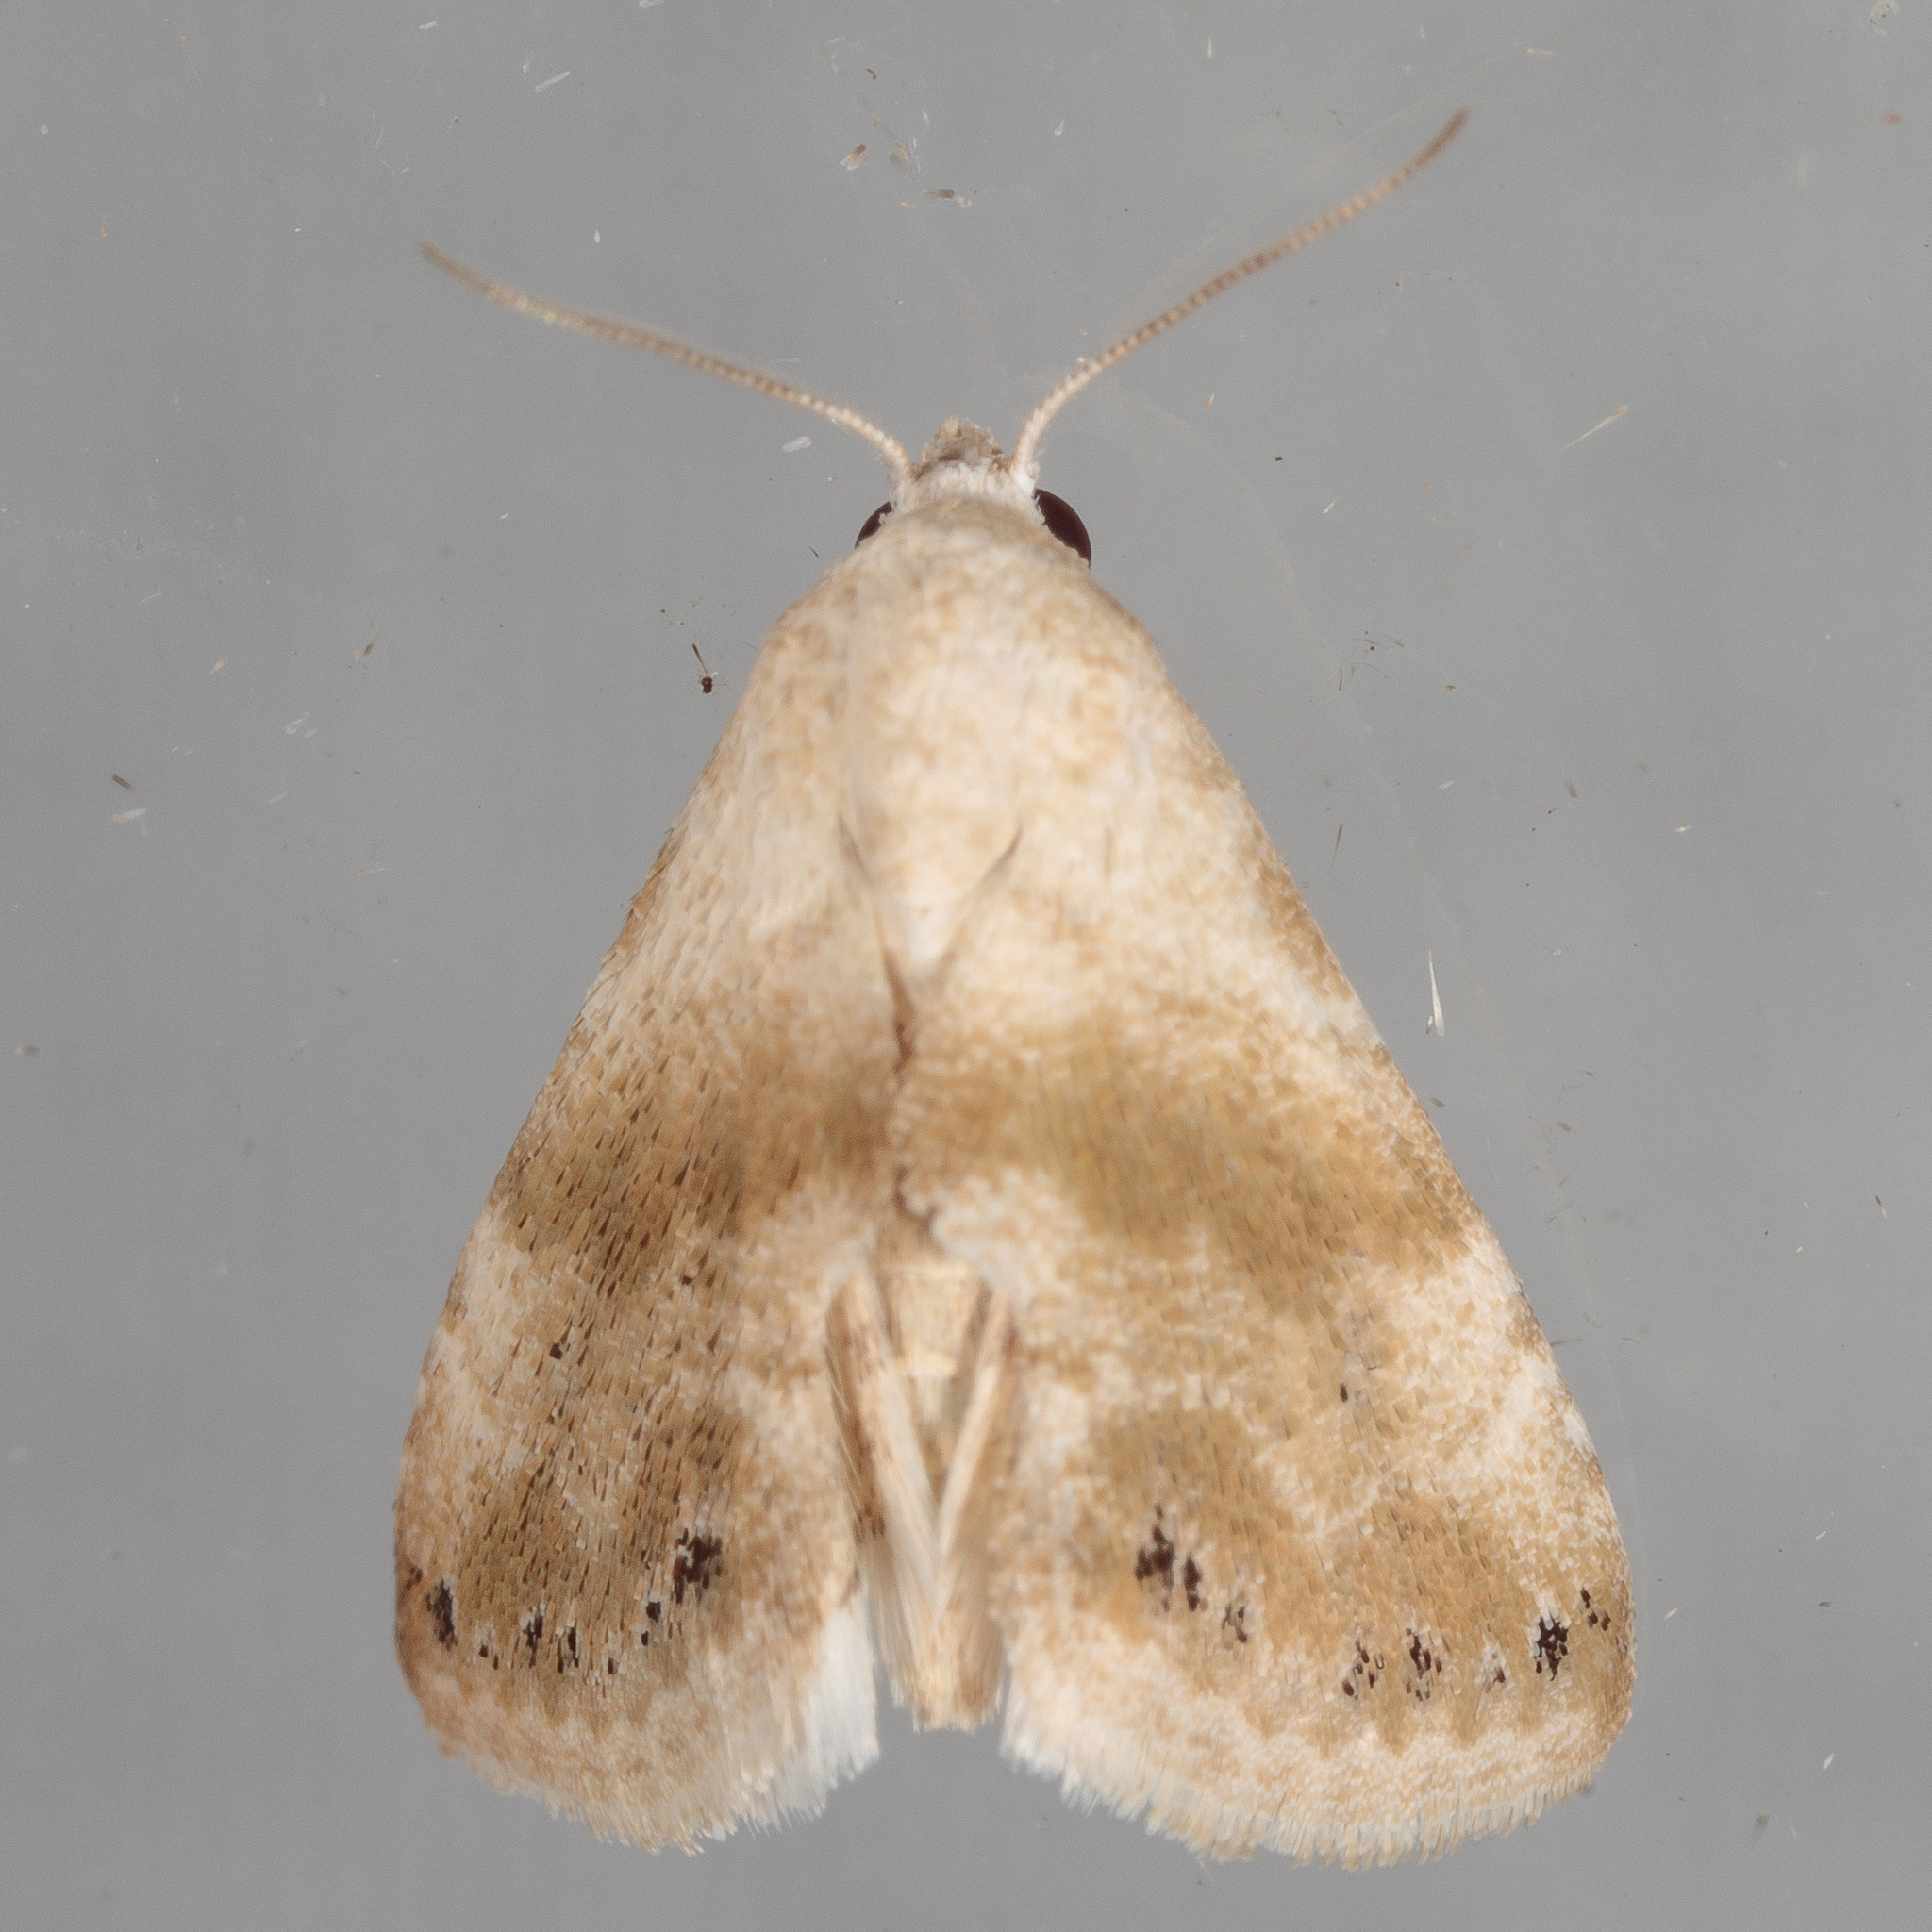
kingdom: Animalia
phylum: Arthropoda
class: Insecta
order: Lepidoptera
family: Noctuidae
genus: Eublemma
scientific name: Eublemma minima
